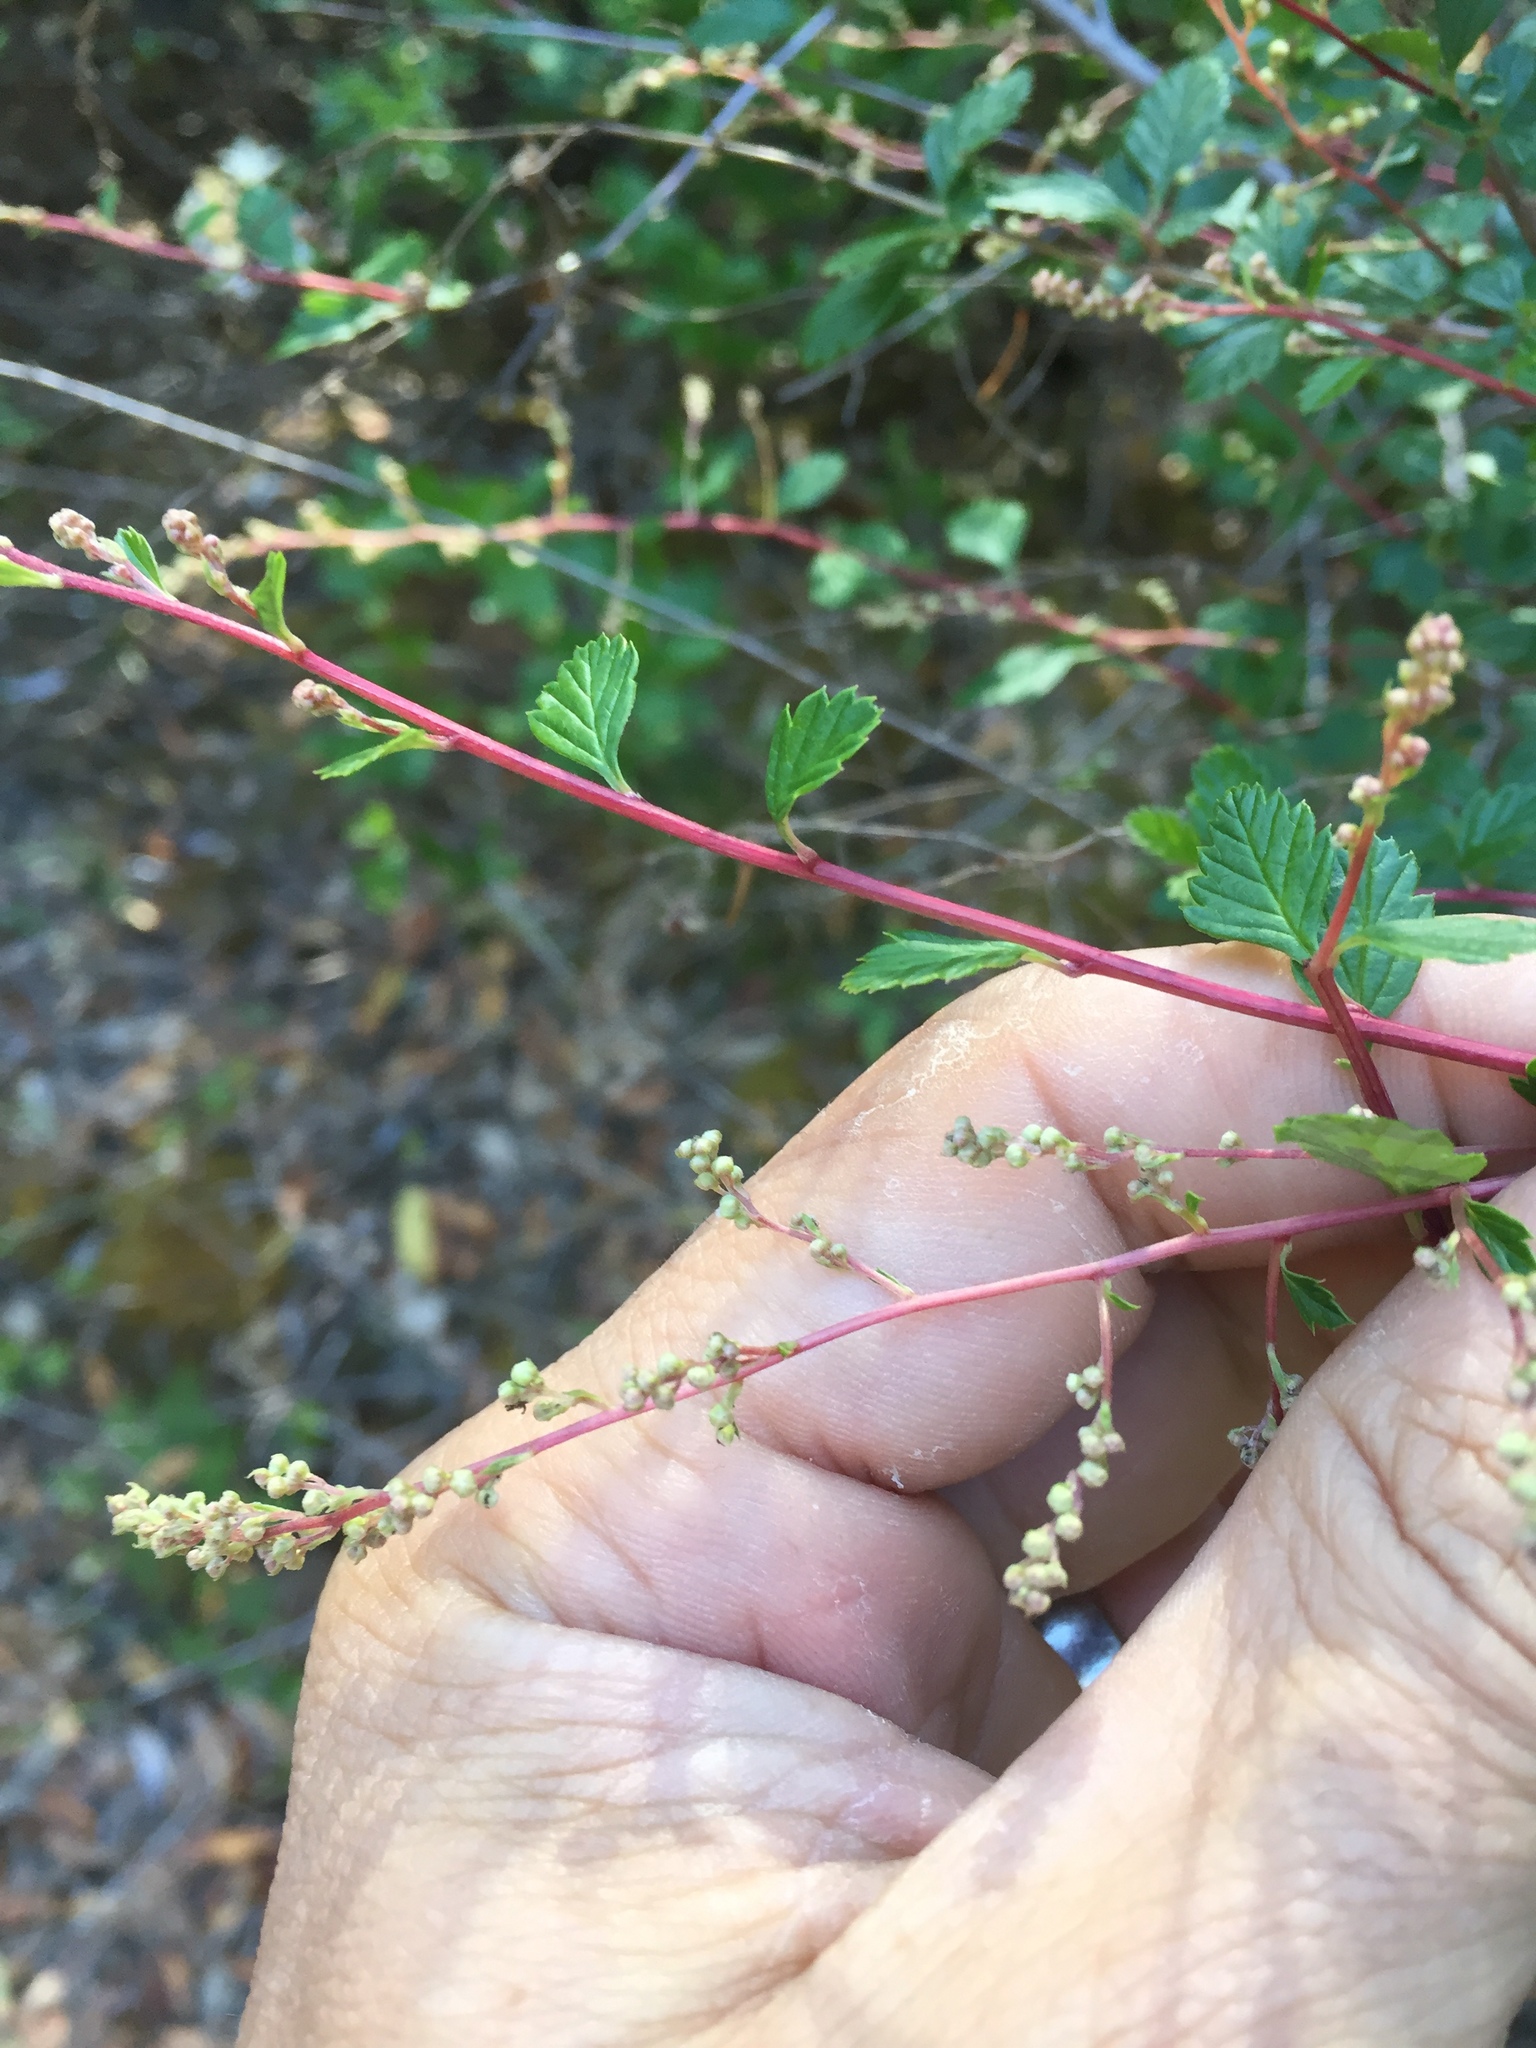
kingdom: Plantae
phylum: Tracheophyta
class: Magnoliopsida
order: Rosales
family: Rosaceae
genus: Holodiscus
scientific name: Holodiscus discolor
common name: Oceanspray
